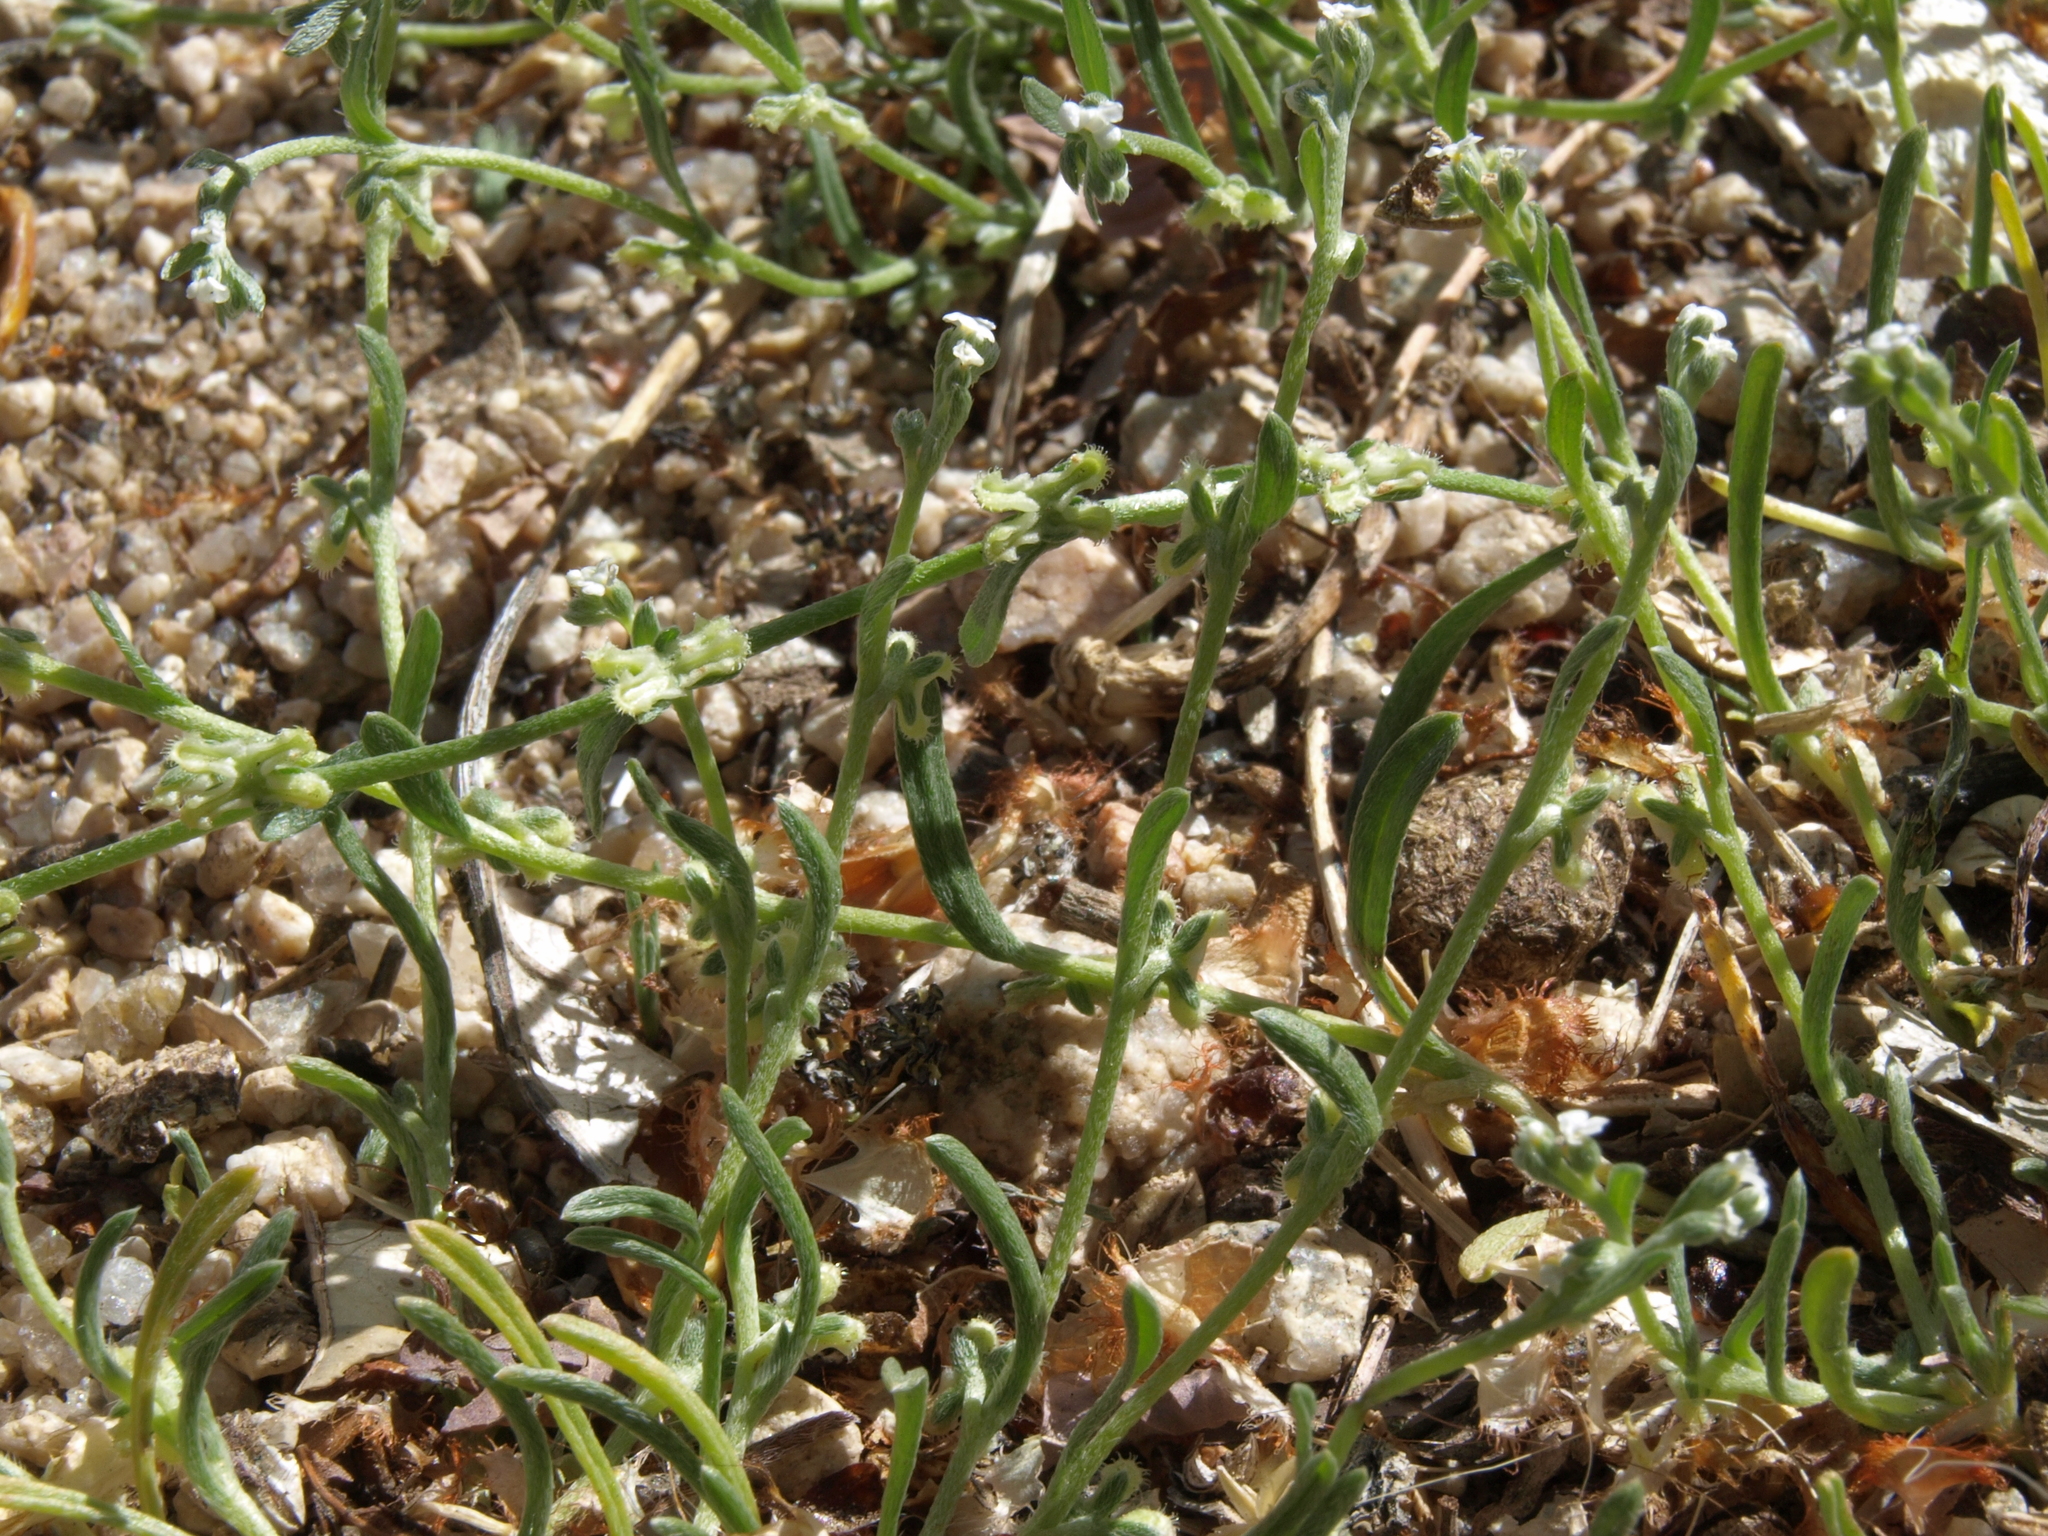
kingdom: Plantae
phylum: Tracheophyta
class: Magnoliopsida
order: Boraginales
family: Boraginaceae
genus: Pectocarya
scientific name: Pectocarya penicillata
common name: Short-leaved combseed
